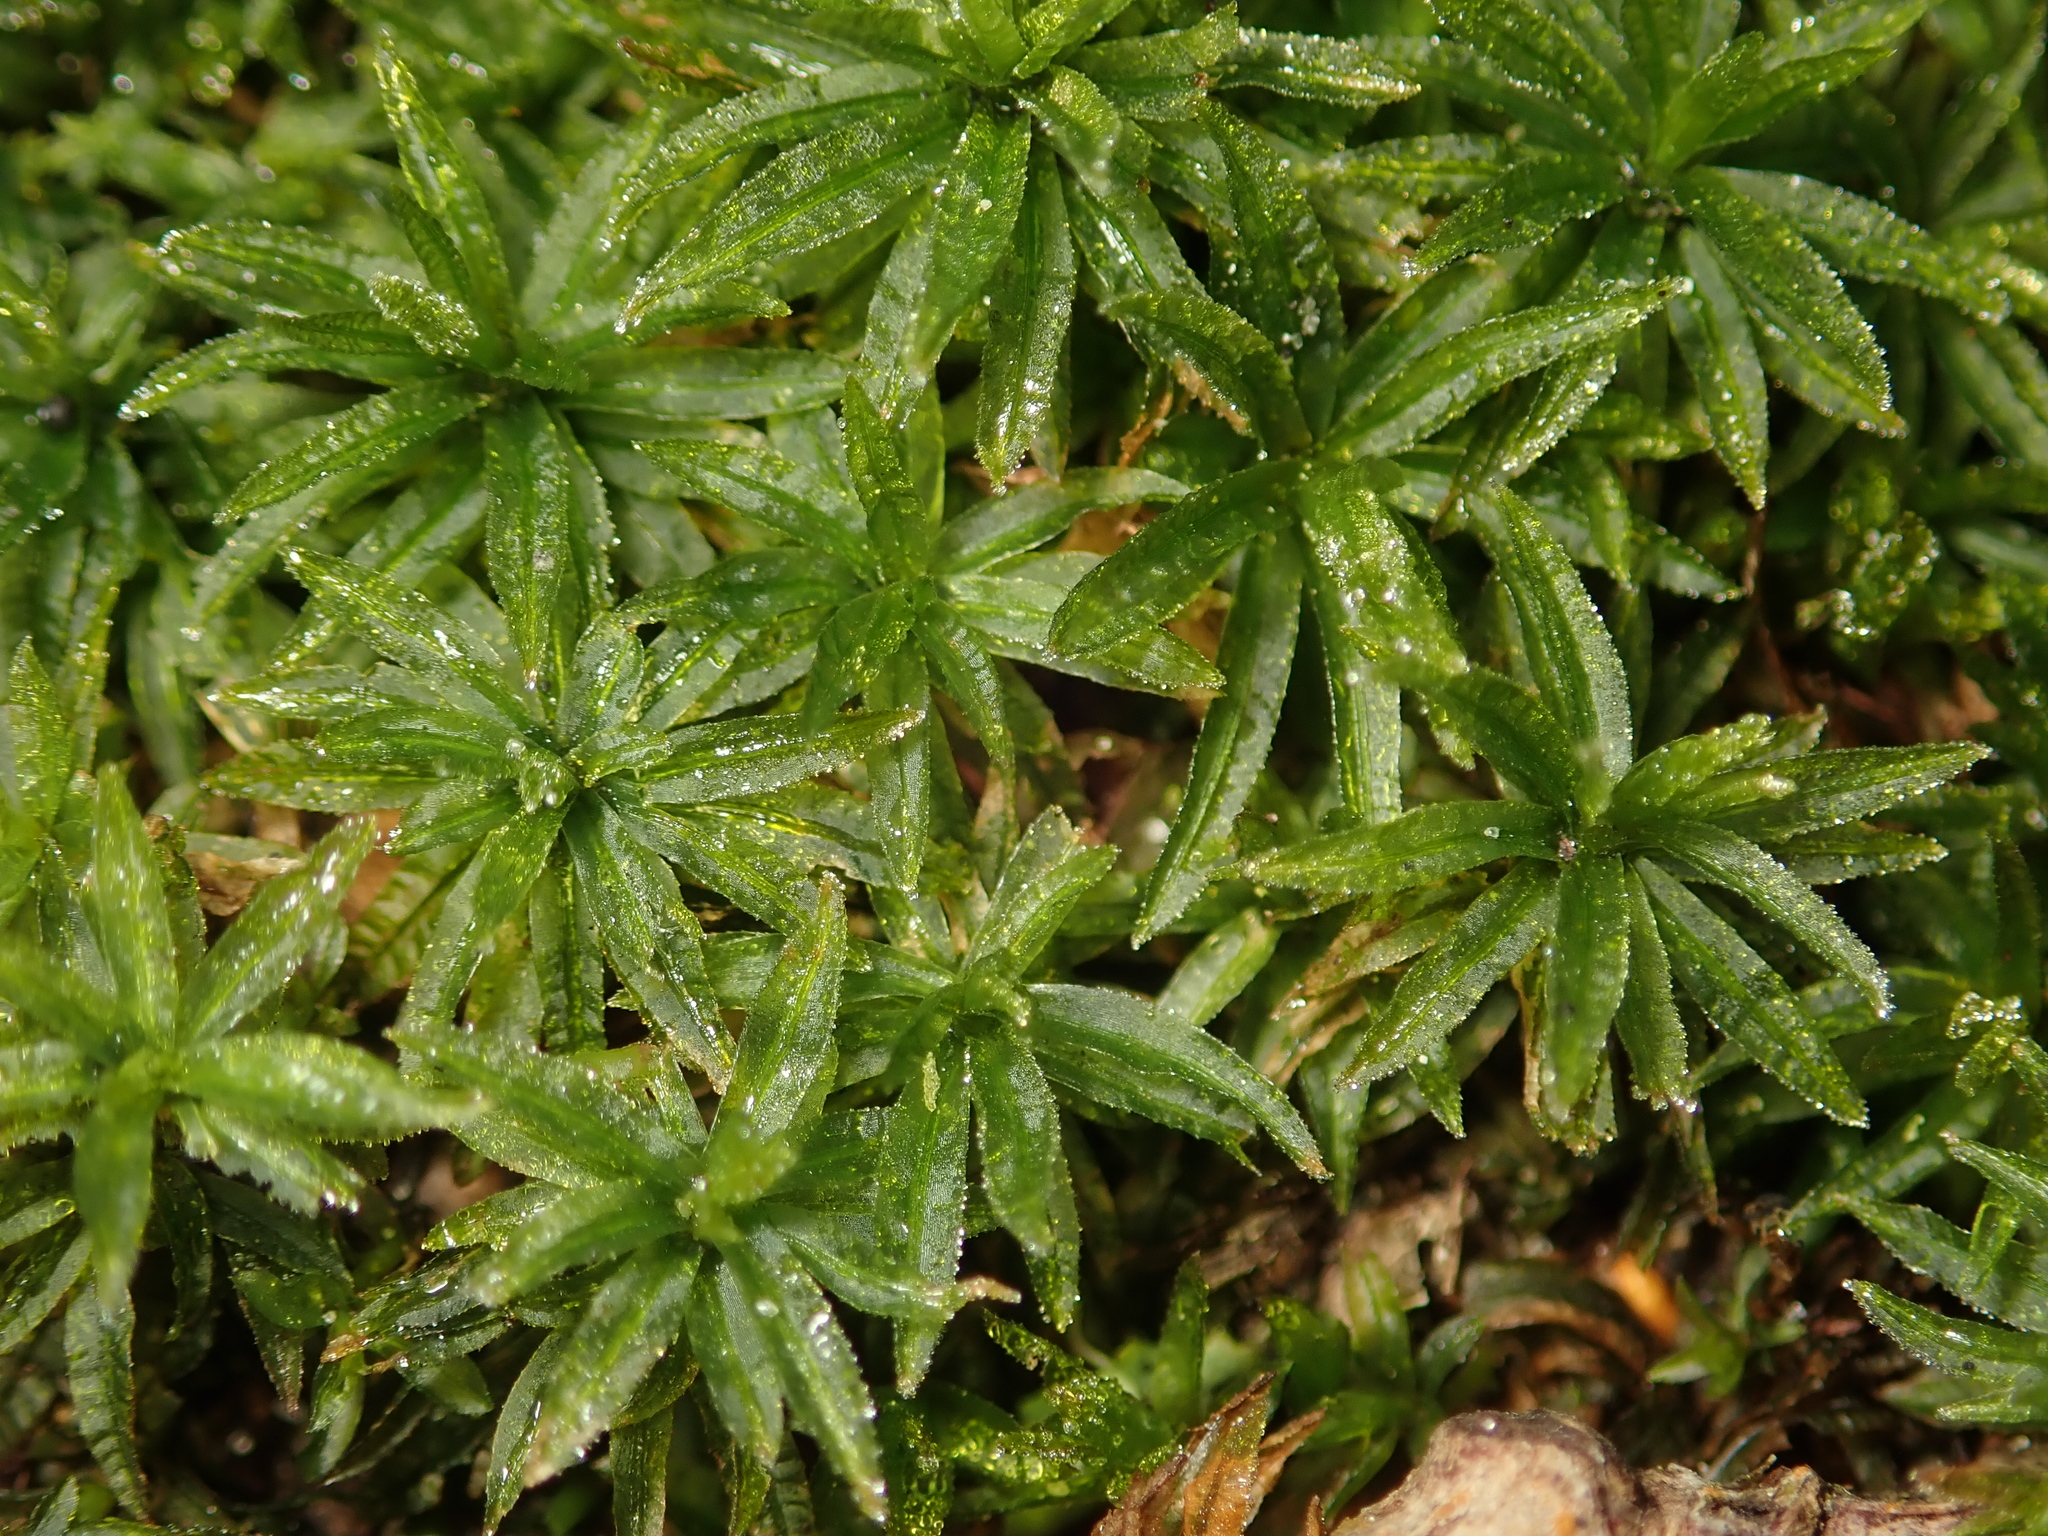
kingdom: Plantae
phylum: Bryophyta
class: Polytrichopsida
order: Polytrichales
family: Polytrichaceae
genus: Atrichum
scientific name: Atrichum undulatum
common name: Common smoothcap
